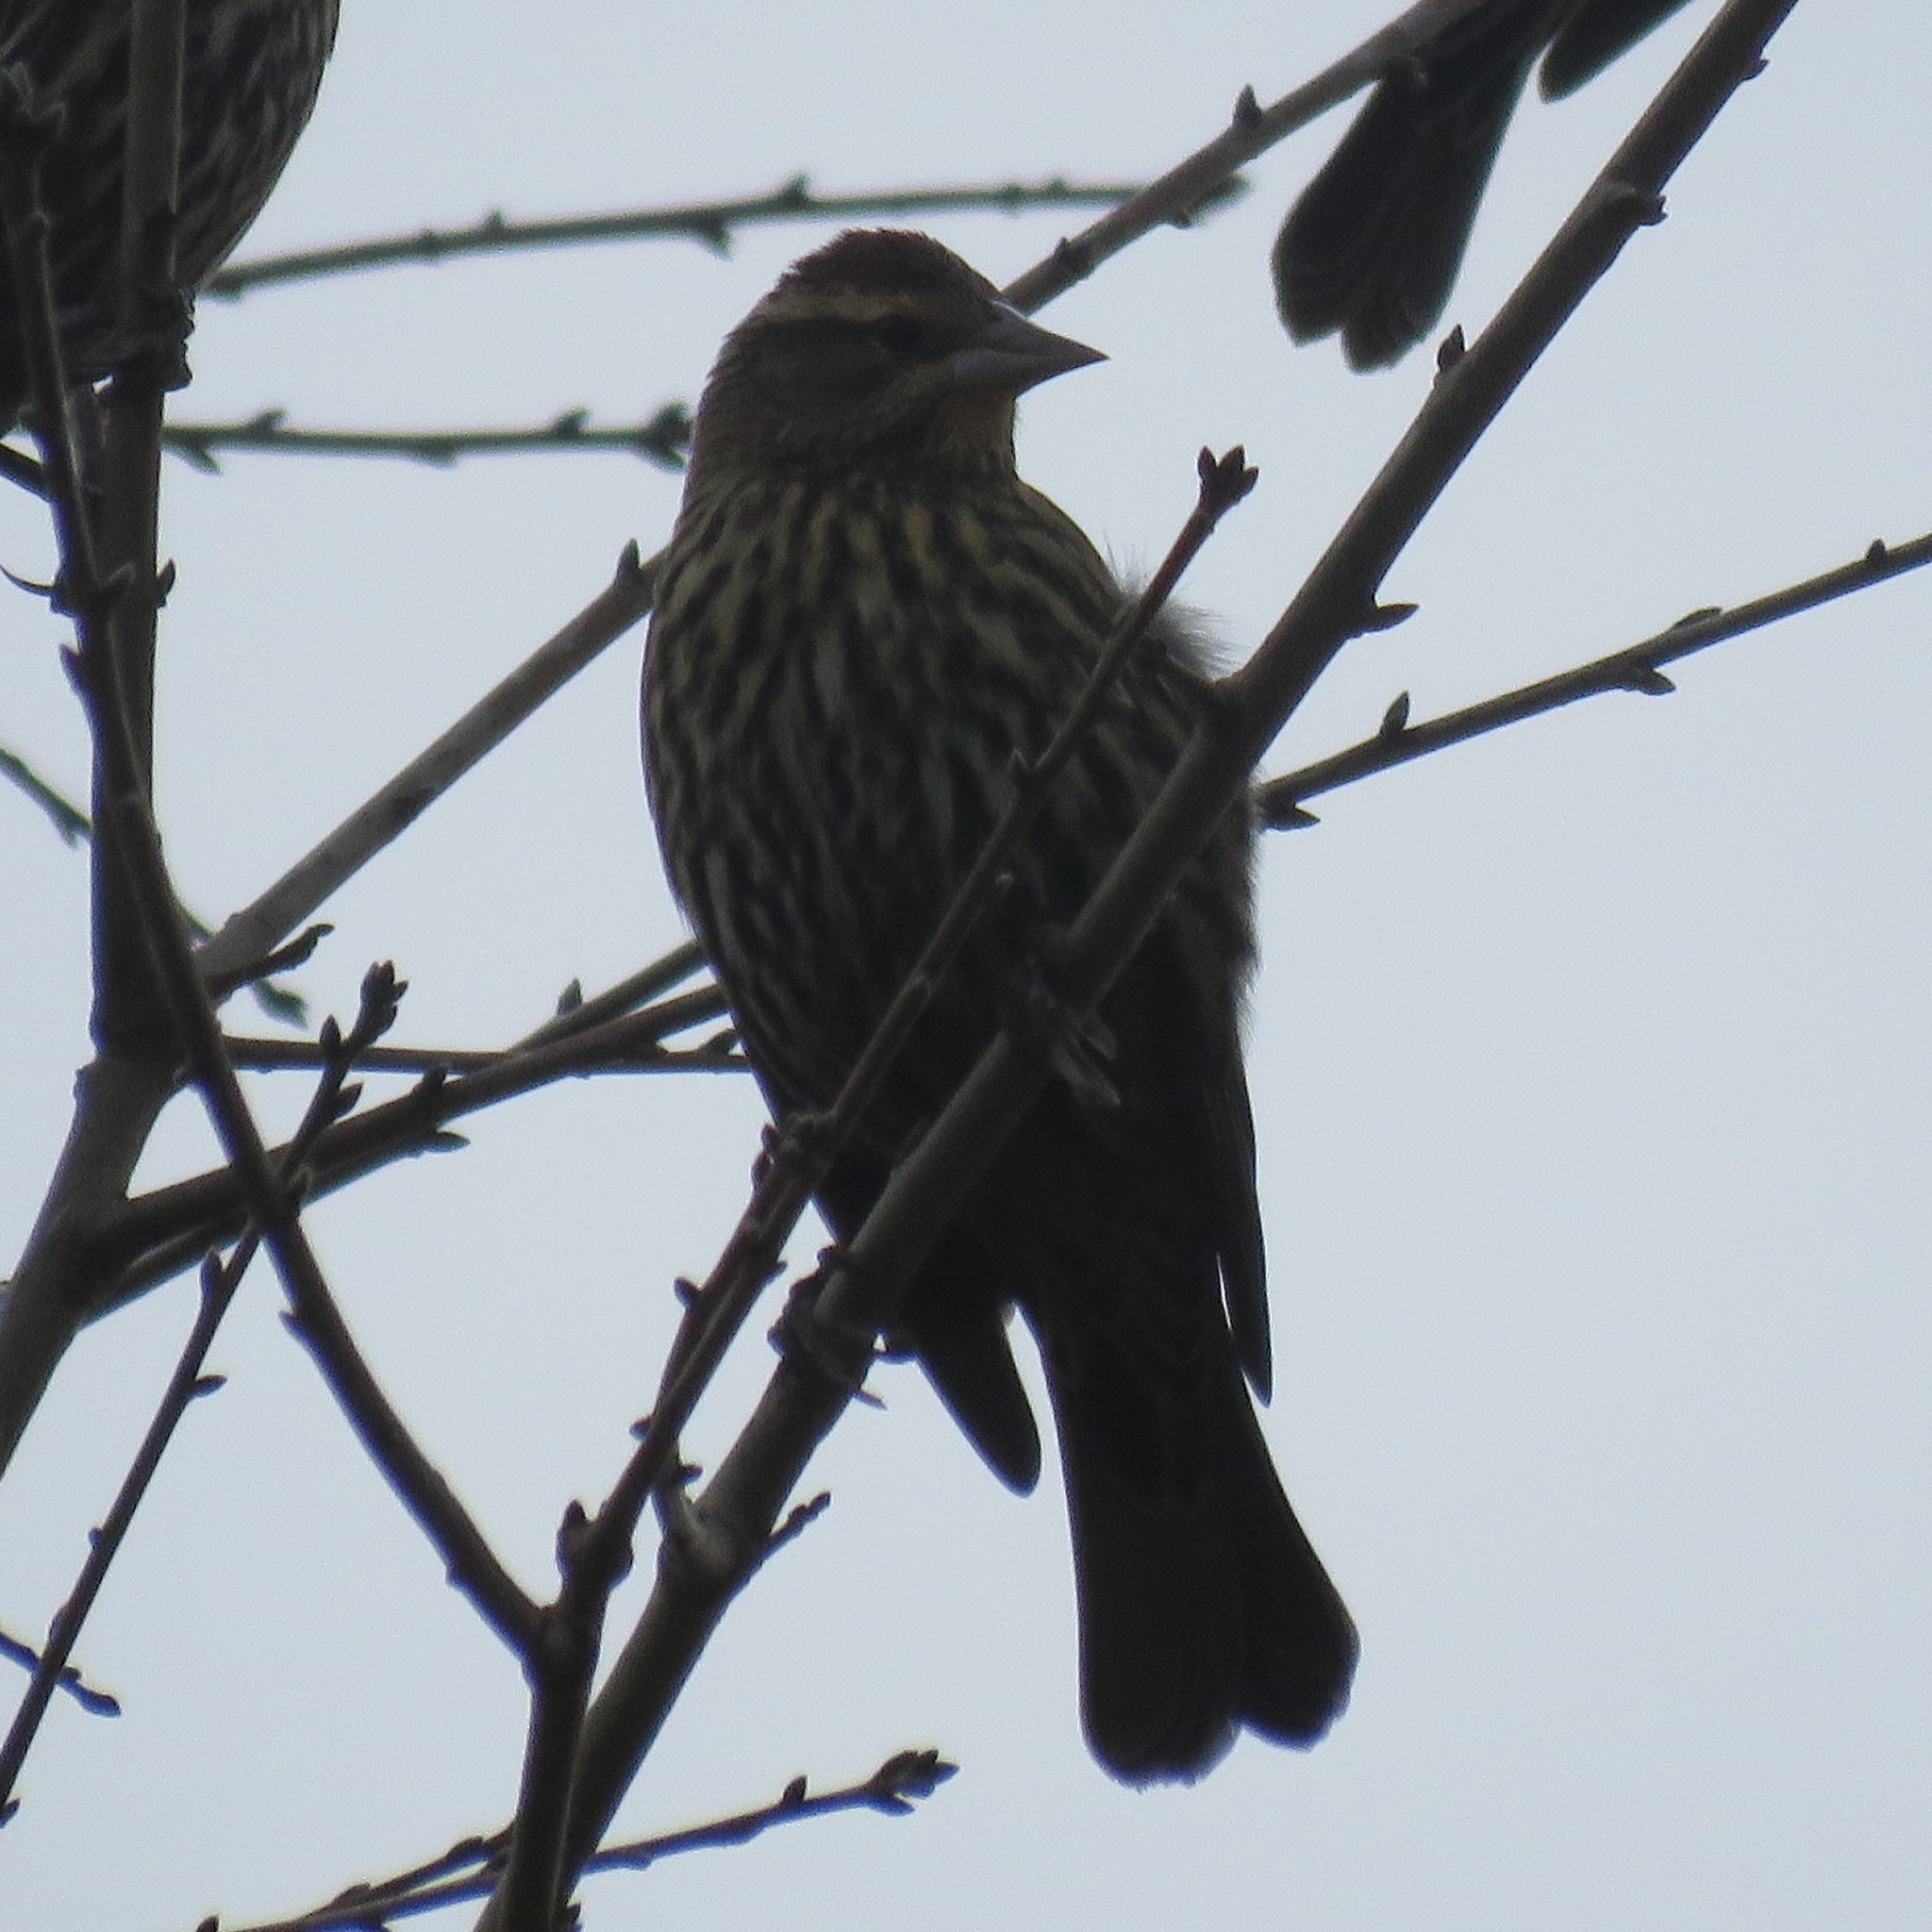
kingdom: Animalia
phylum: Chordata
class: Aves
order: Passeriformes
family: Icteridae
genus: Agelaius
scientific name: Agelaius phoeniceus
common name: Red-winged blackbird
